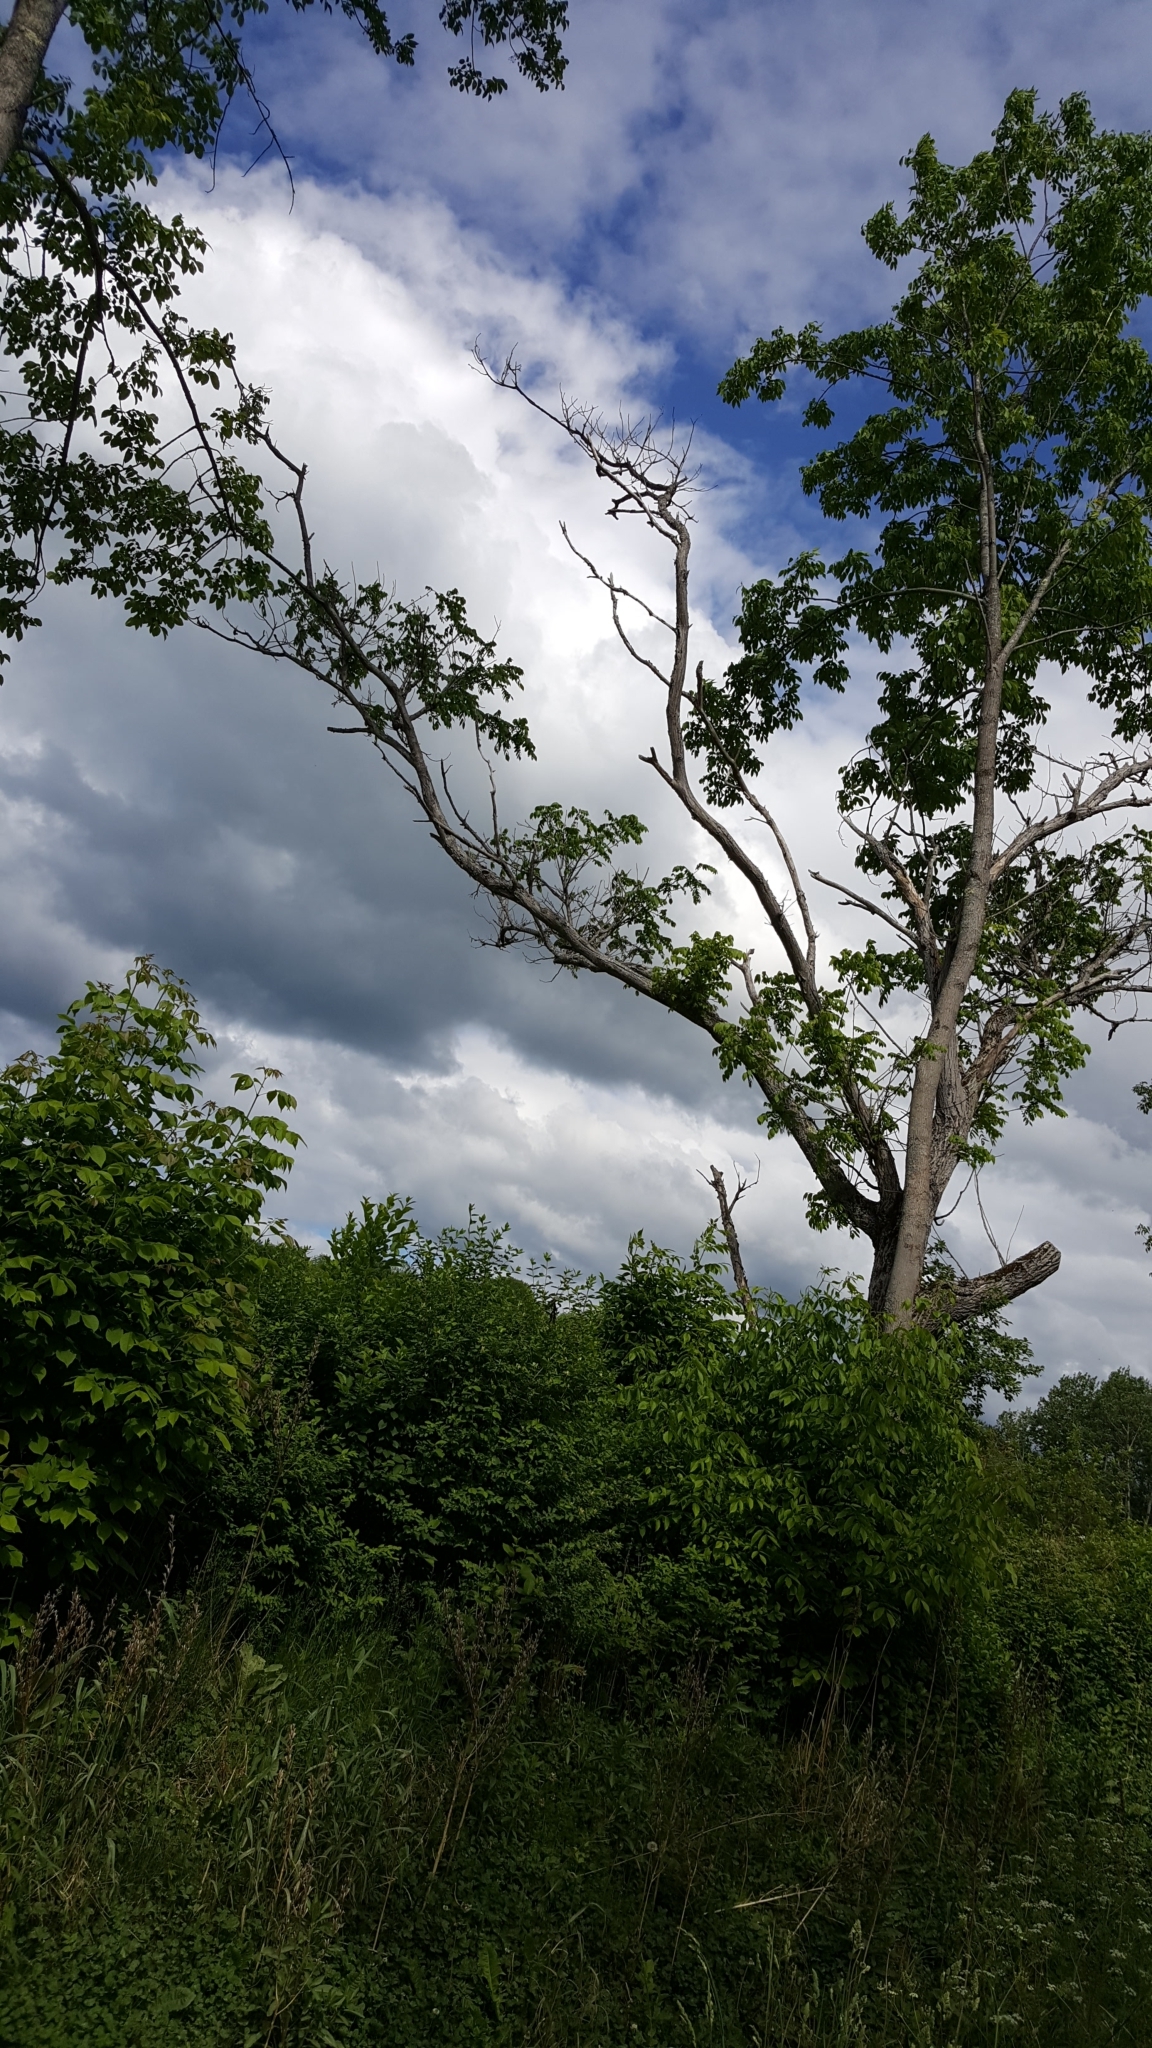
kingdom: Plantae
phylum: Tracheophyta
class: Magnoliopsida
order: Fagales
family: Juglandaceae
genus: Juglans
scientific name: Juglans cinerea
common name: Butternut
